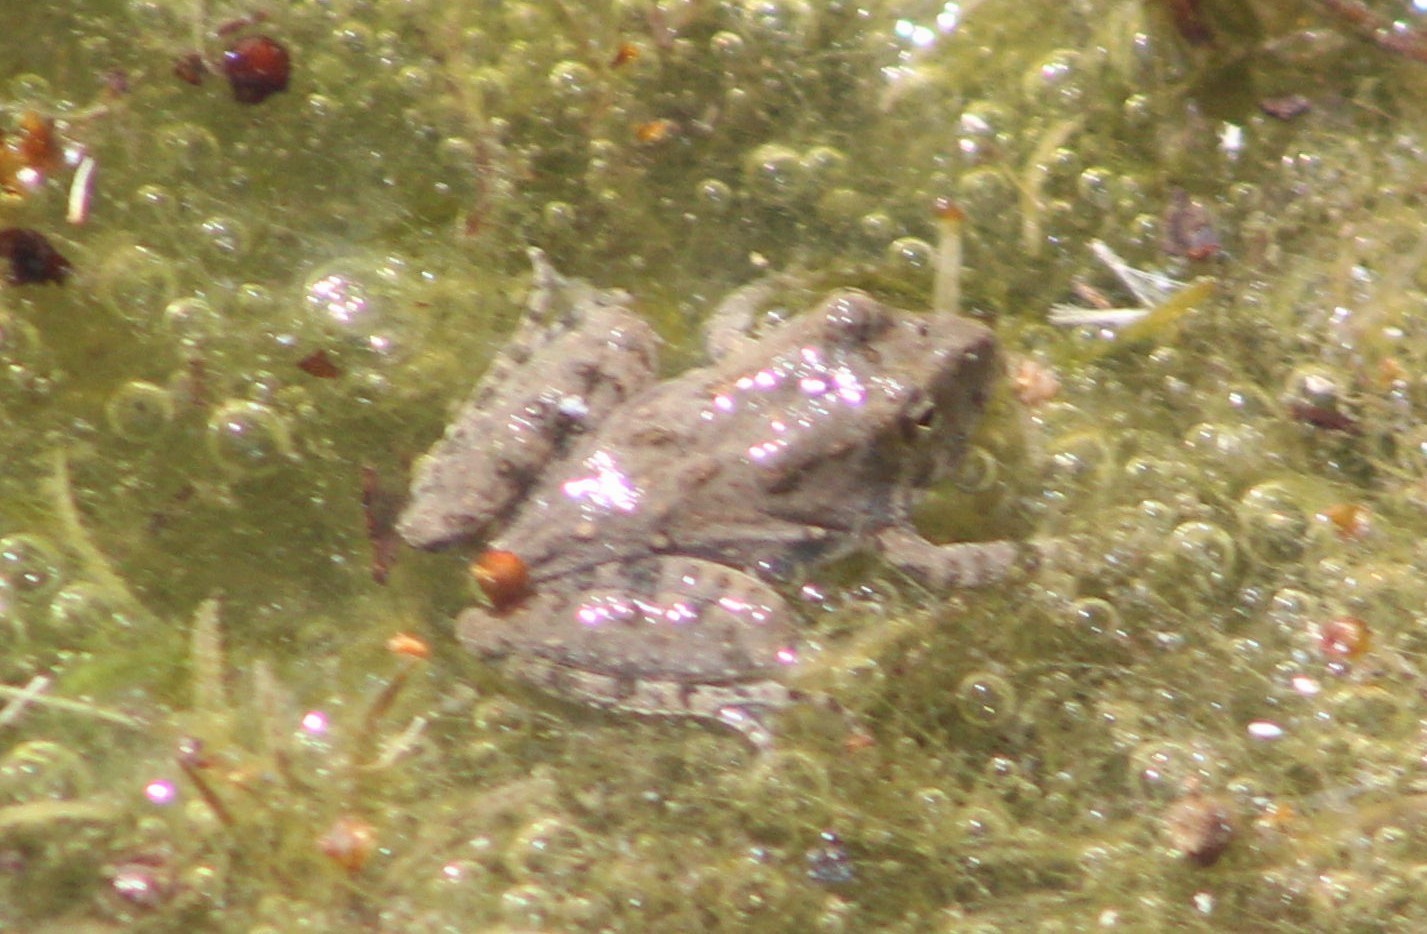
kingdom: Animalia
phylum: Chordata
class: Amphibia
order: Anura
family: Hylidae
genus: Acris
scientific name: Acris blanchardi
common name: Blanchard's cricket frog
